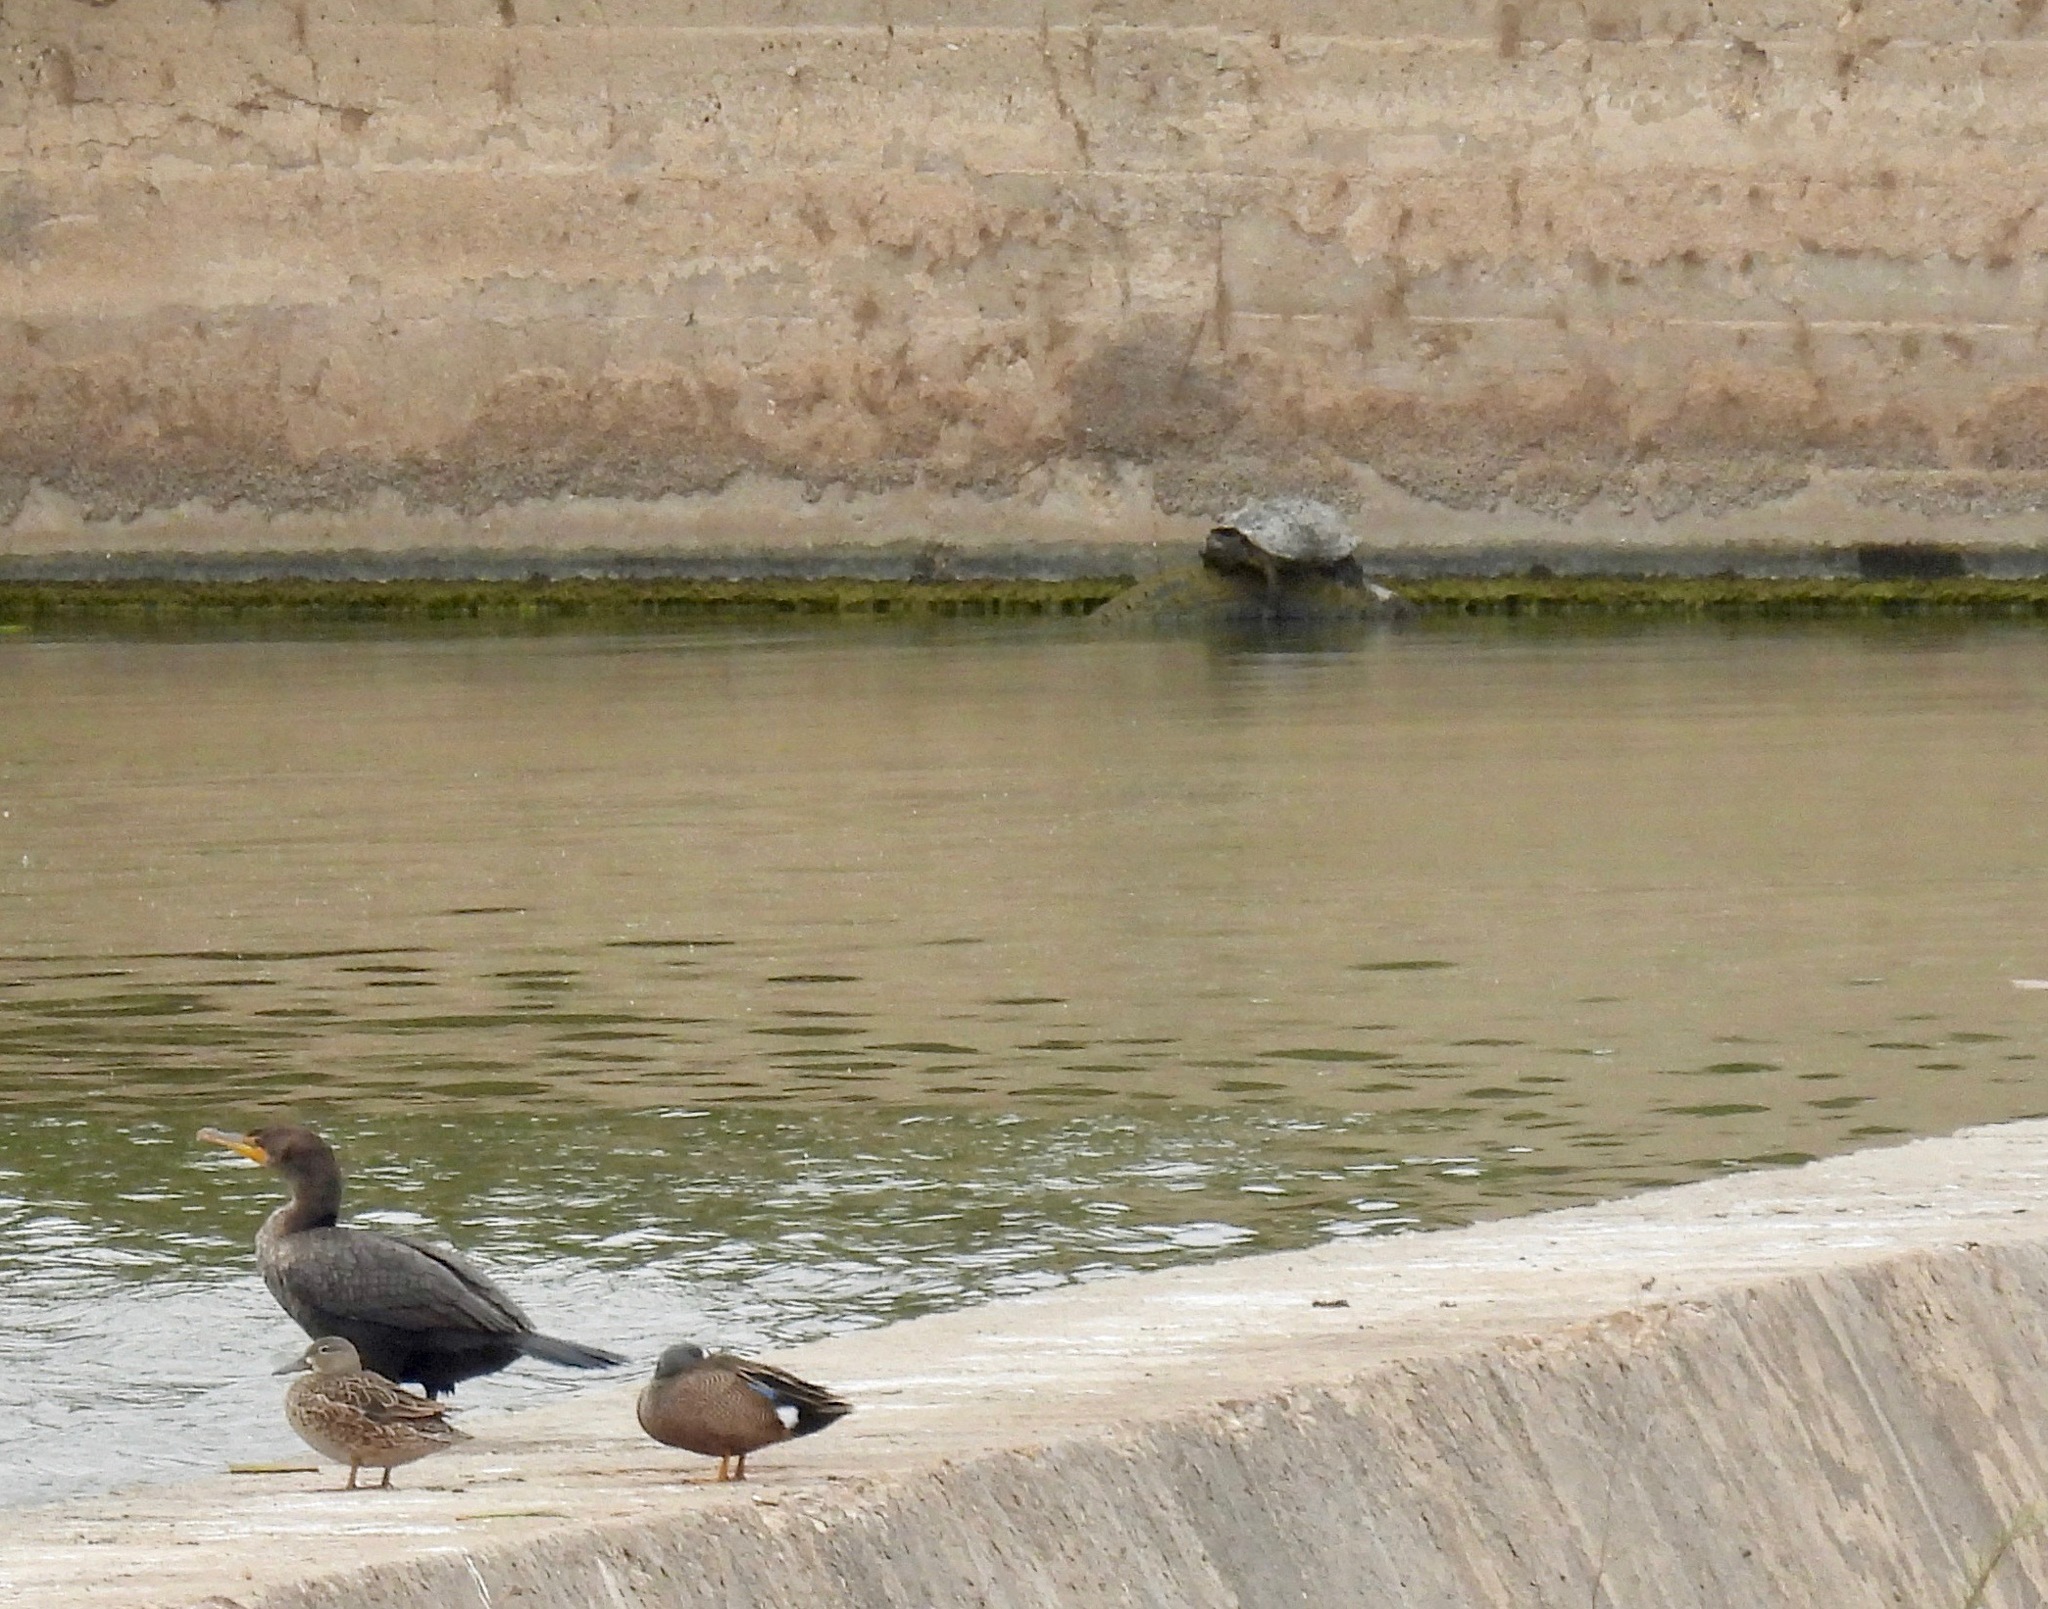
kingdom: Animalia
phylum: Chordata
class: Testudines
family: Chelydridae
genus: Chelydra
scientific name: Chelydra serpentina
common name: Common snapping turtle
